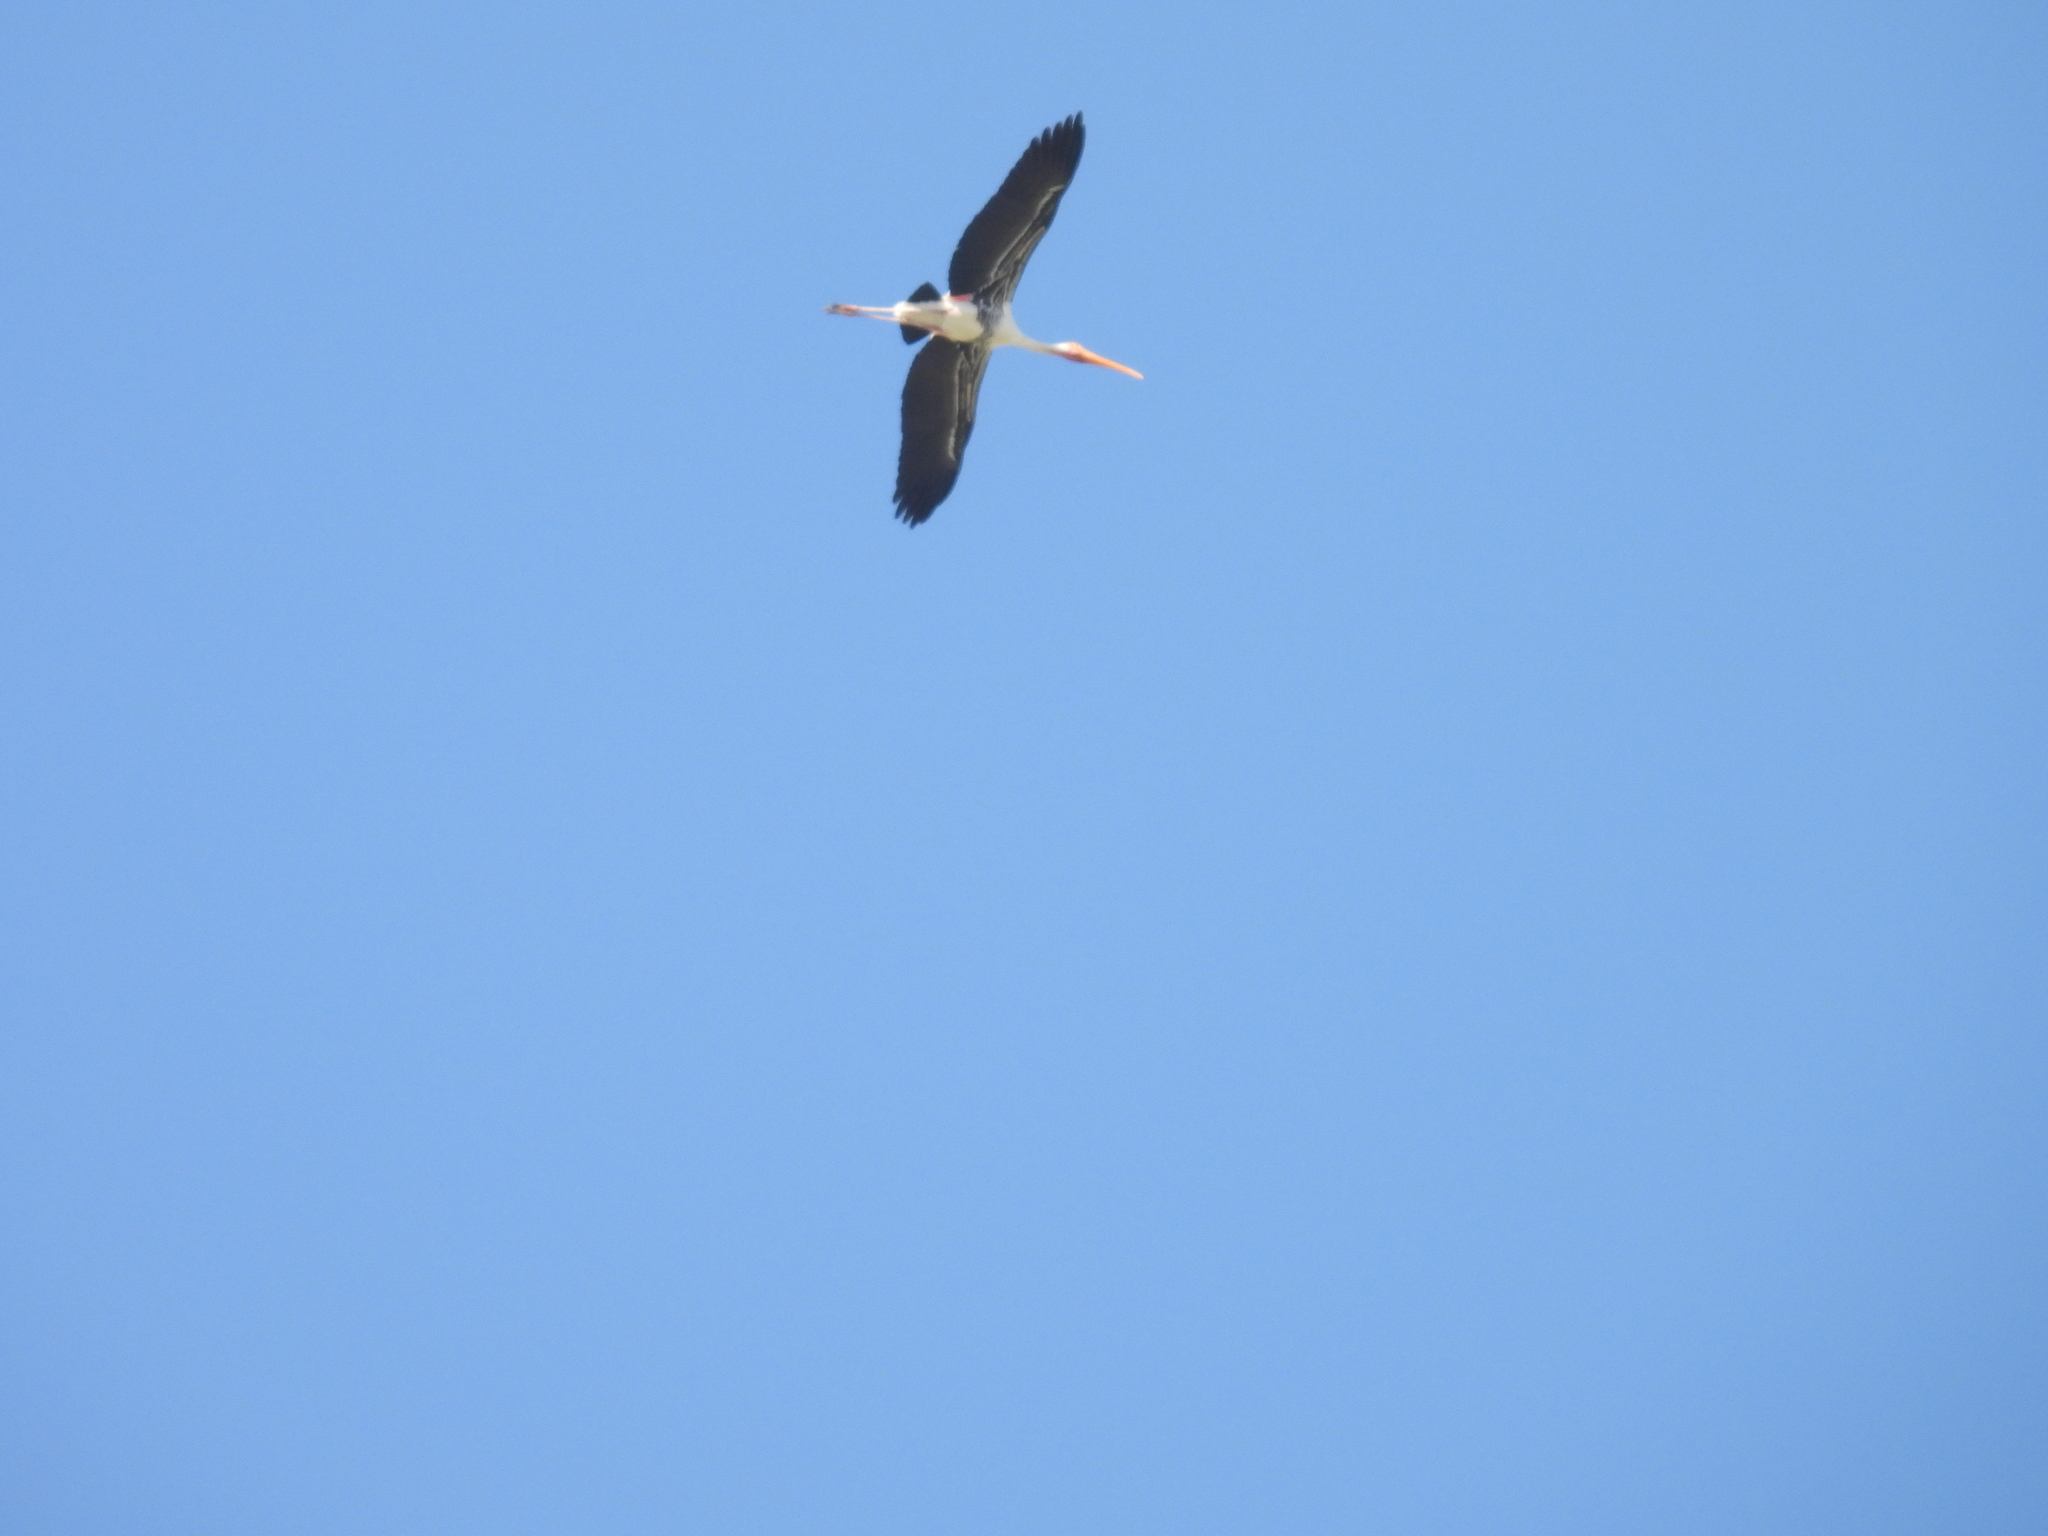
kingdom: Animalia
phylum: Chordata
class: Aves
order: Ciconiiformes
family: Ciconiidae
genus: Mycteria
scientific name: Mycteria leucocephala
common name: Painted stork
